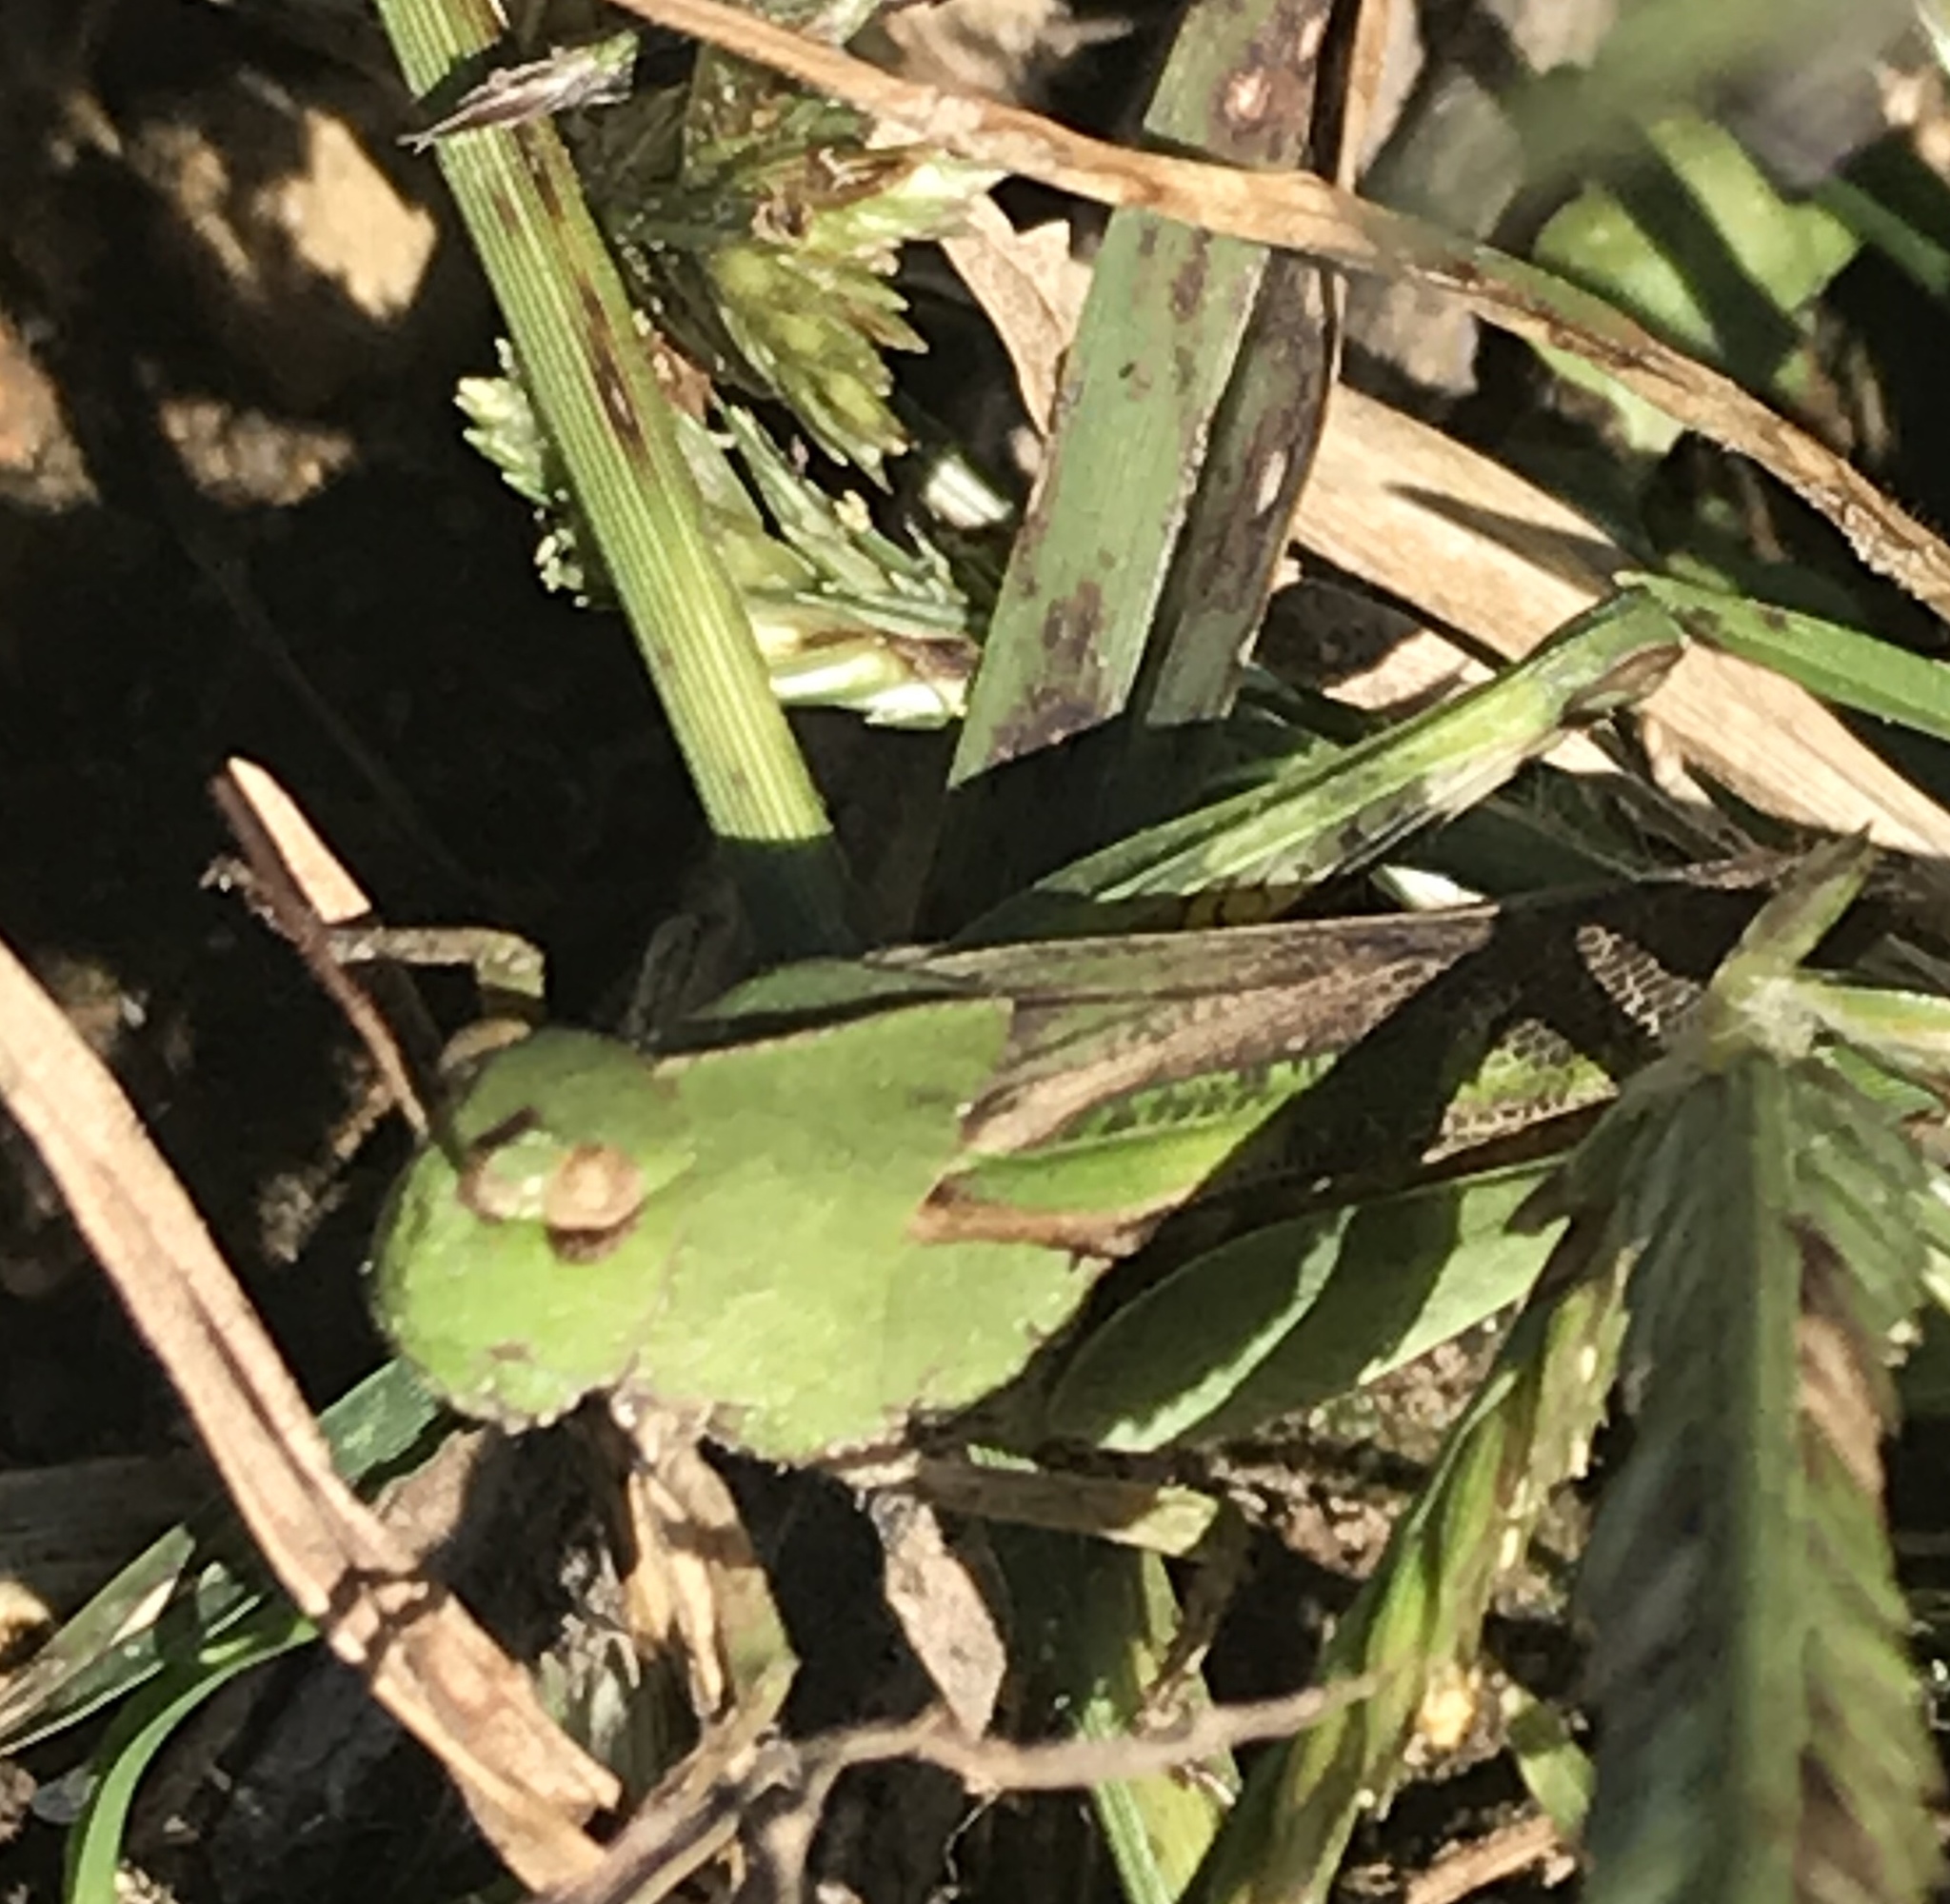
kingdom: Animalia
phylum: Arthropoda
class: Insecta
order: Orthoptera
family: Acrididae
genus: Chortophaga
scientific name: Chortophaga viridifasciata
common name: Green-striped grasshopper
